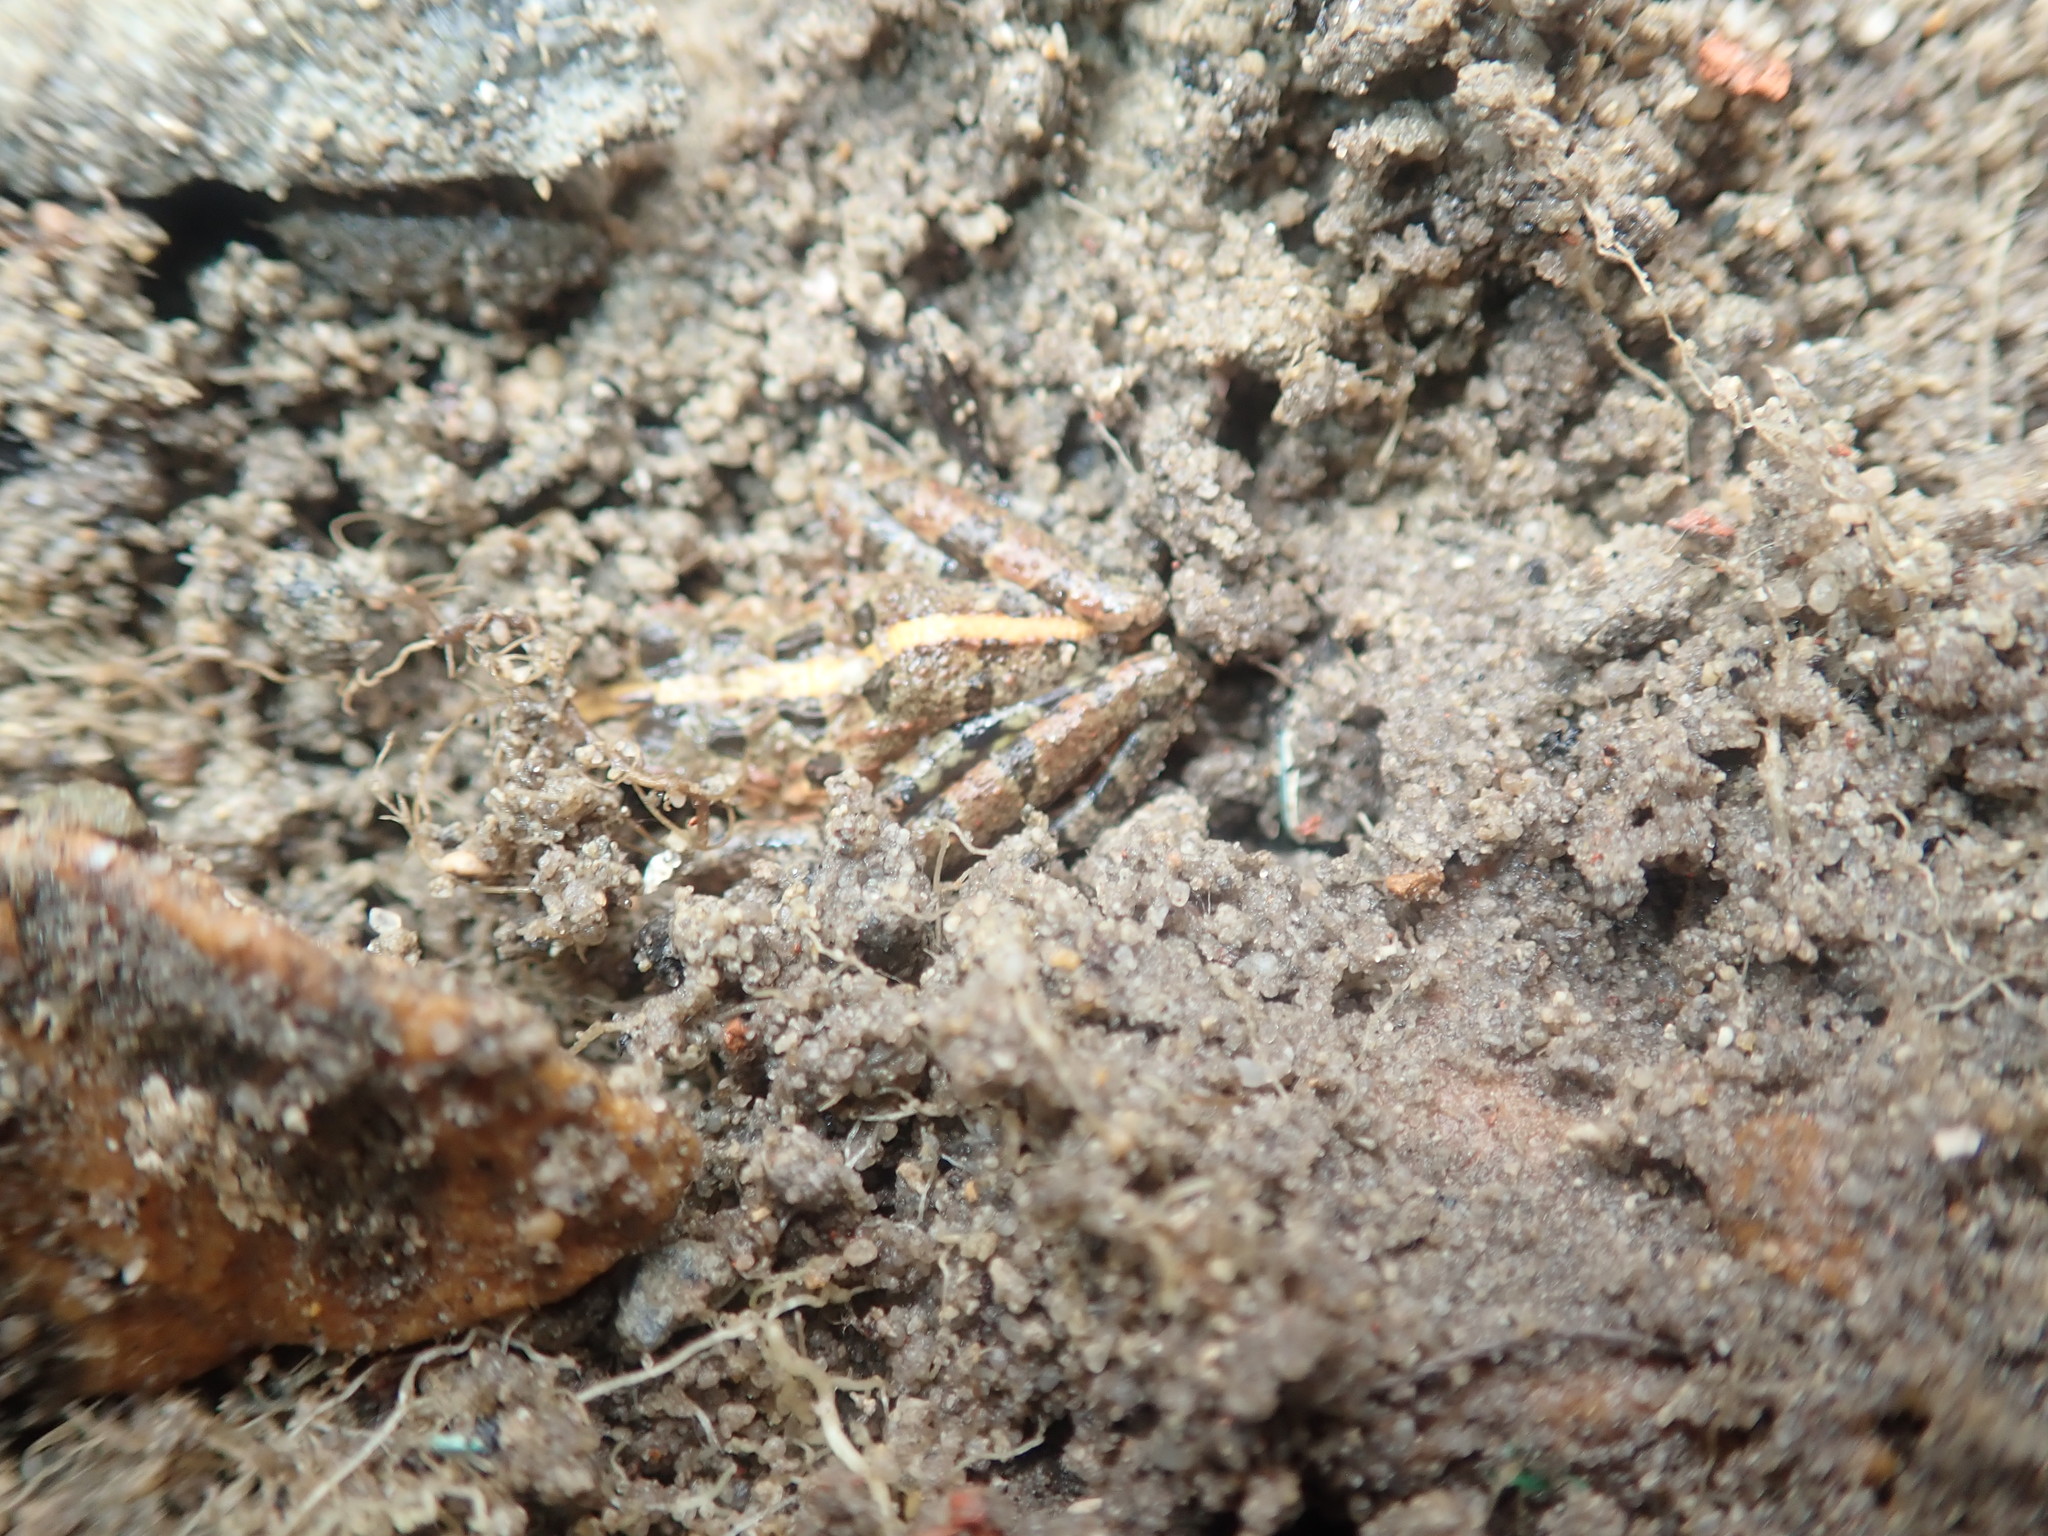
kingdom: Animalia
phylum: Chordata
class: Amphibia
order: Anura
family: Pyxicephalidae
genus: Strongylopus
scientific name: Strongylopus grayii
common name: Gray's stream frog
